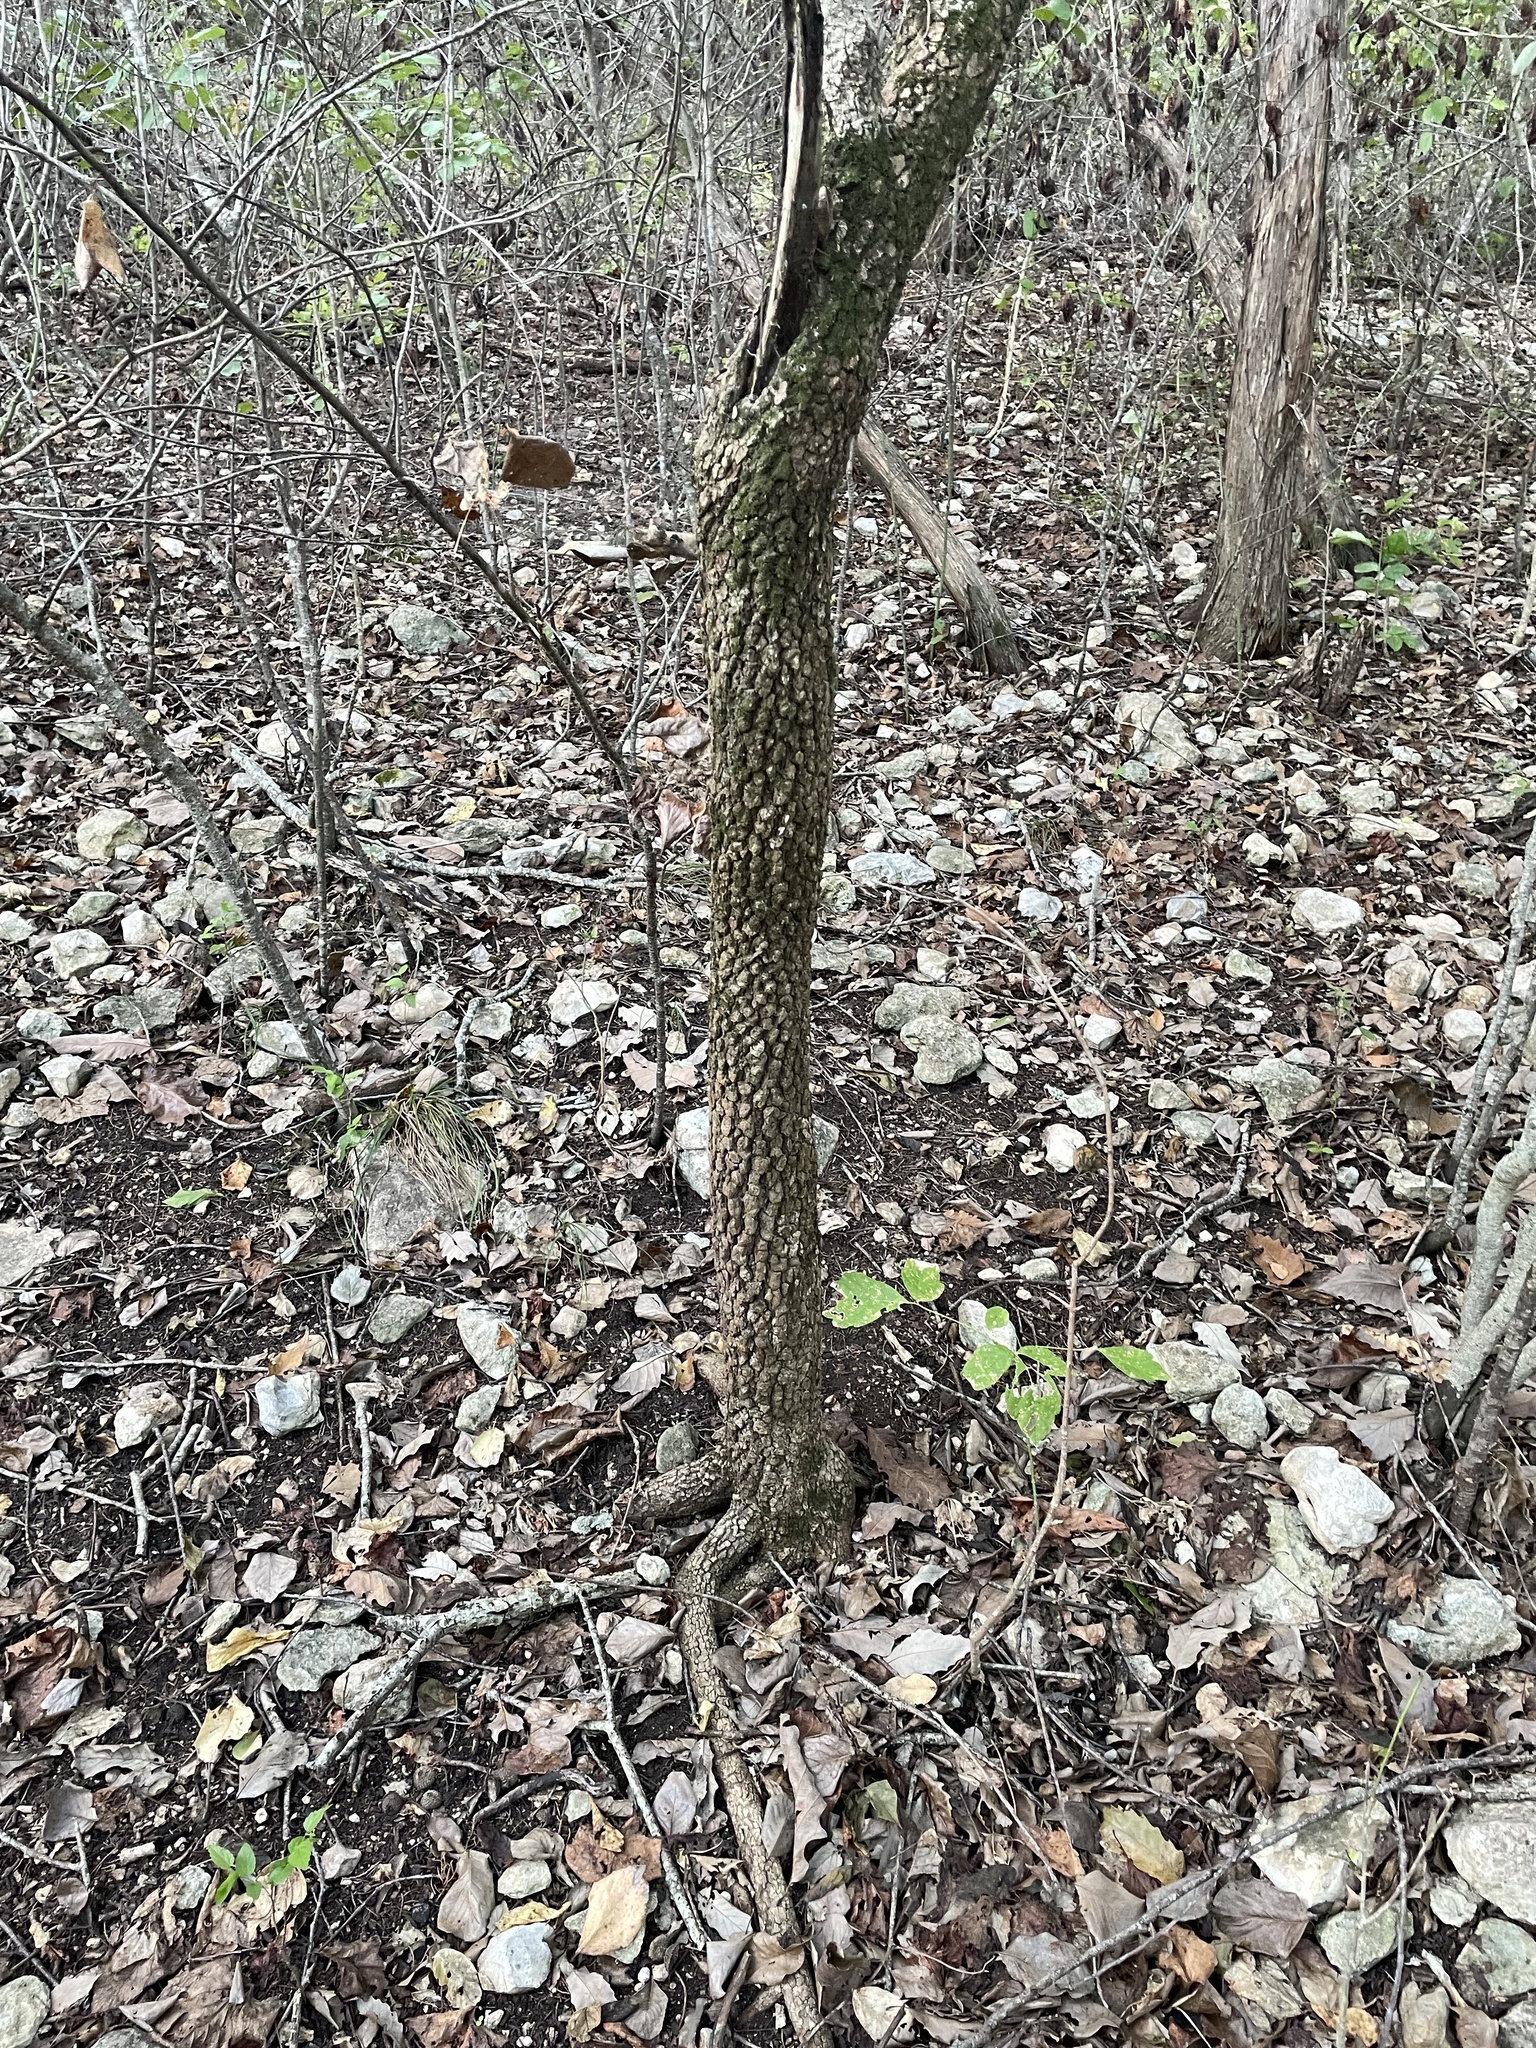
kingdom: Plantae
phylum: Tracheophyta
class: Magnoliopsida
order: Dipsacales
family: Viburnaceae
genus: Viburnum
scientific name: Viburnum rufidulum
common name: Blue haw
